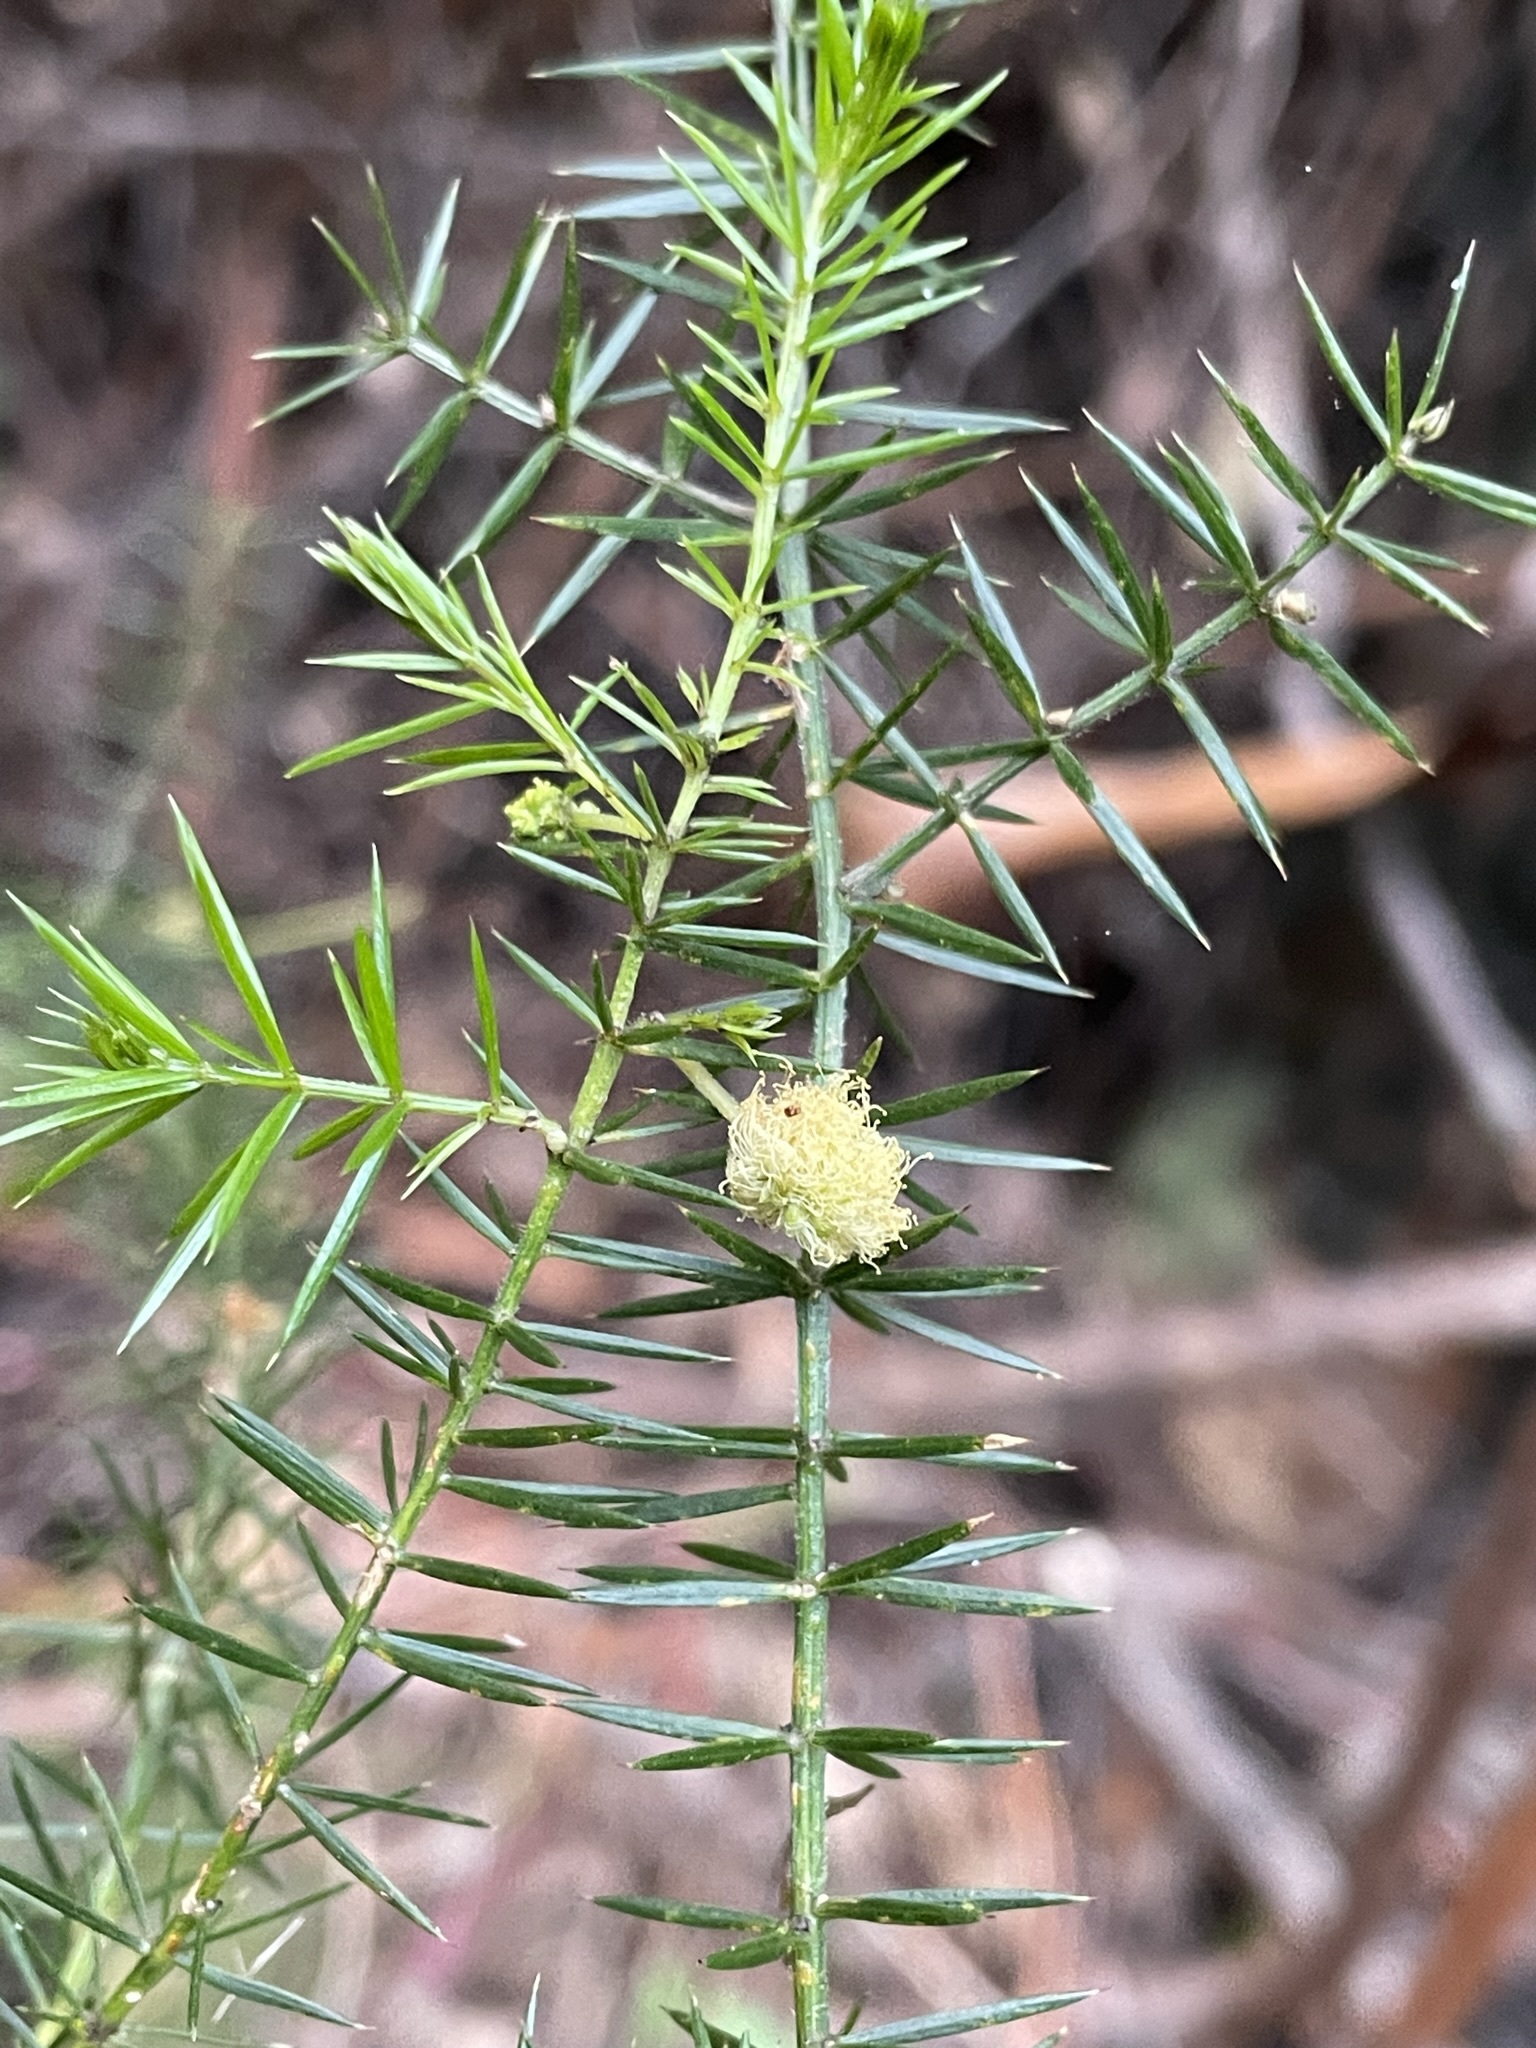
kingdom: Plantae
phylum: Tracheophyta
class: Magnoliopsida
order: Fabales
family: Fabaceae
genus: Acacia
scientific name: Acacia verticillata
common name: Prickly moses
